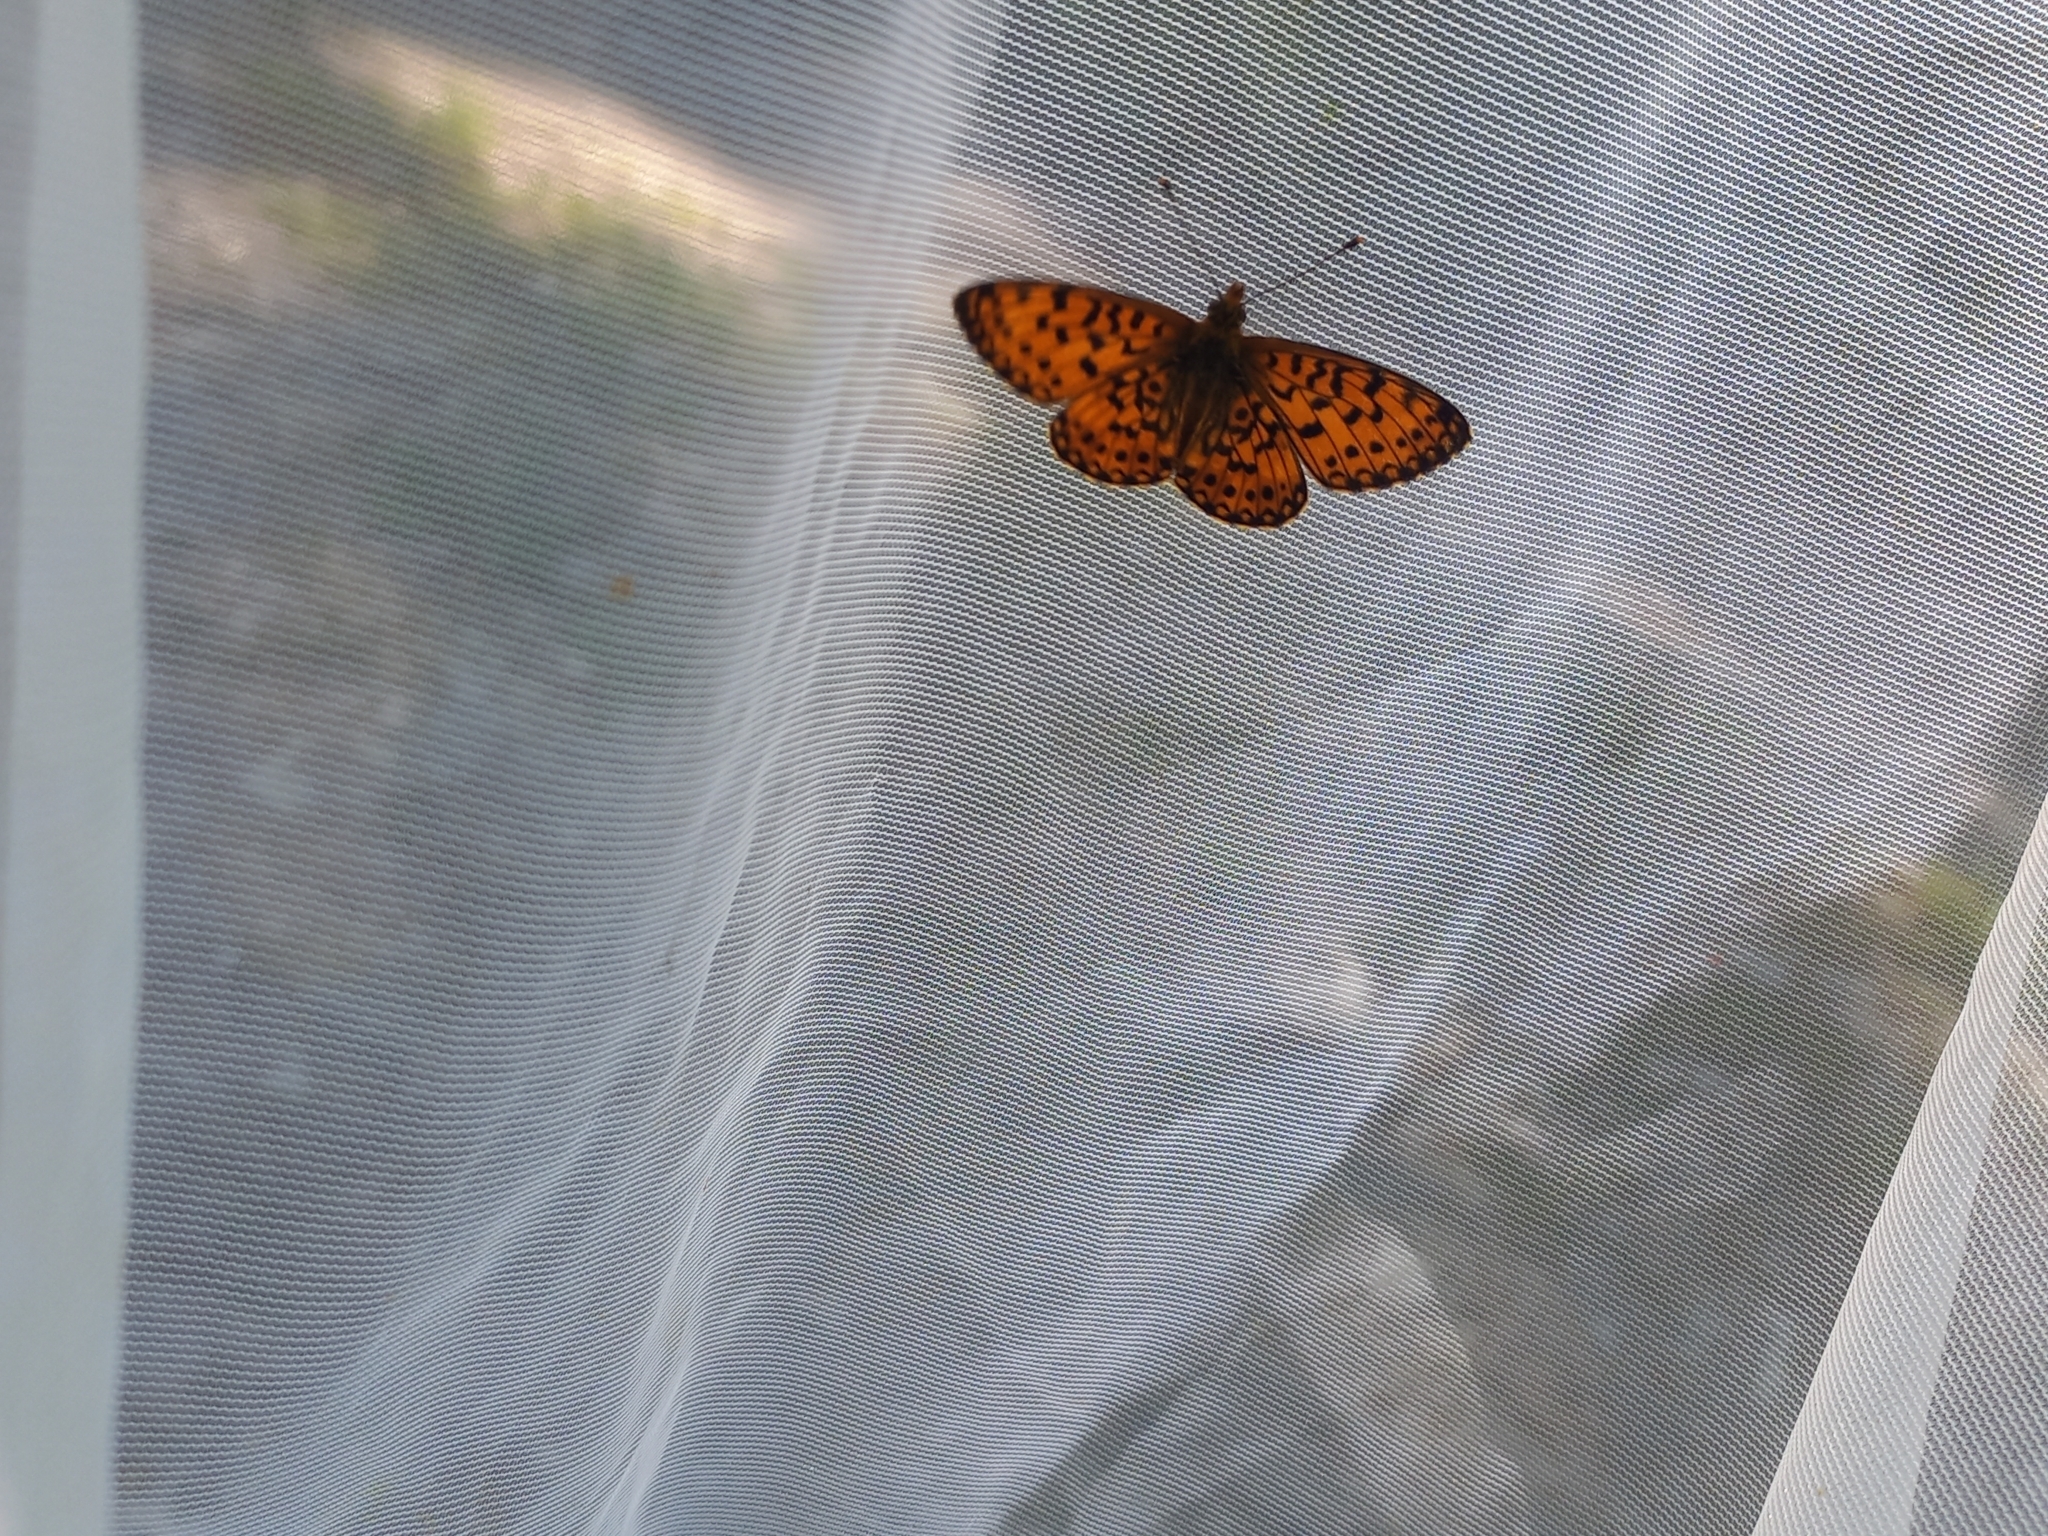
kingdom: Animalia
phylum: Arthropoda
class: Insecta
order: Lepidoptera
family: Nymphalidae
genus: Boloria
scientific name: Boloria selene
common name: Small pearl-bordered fritillary
